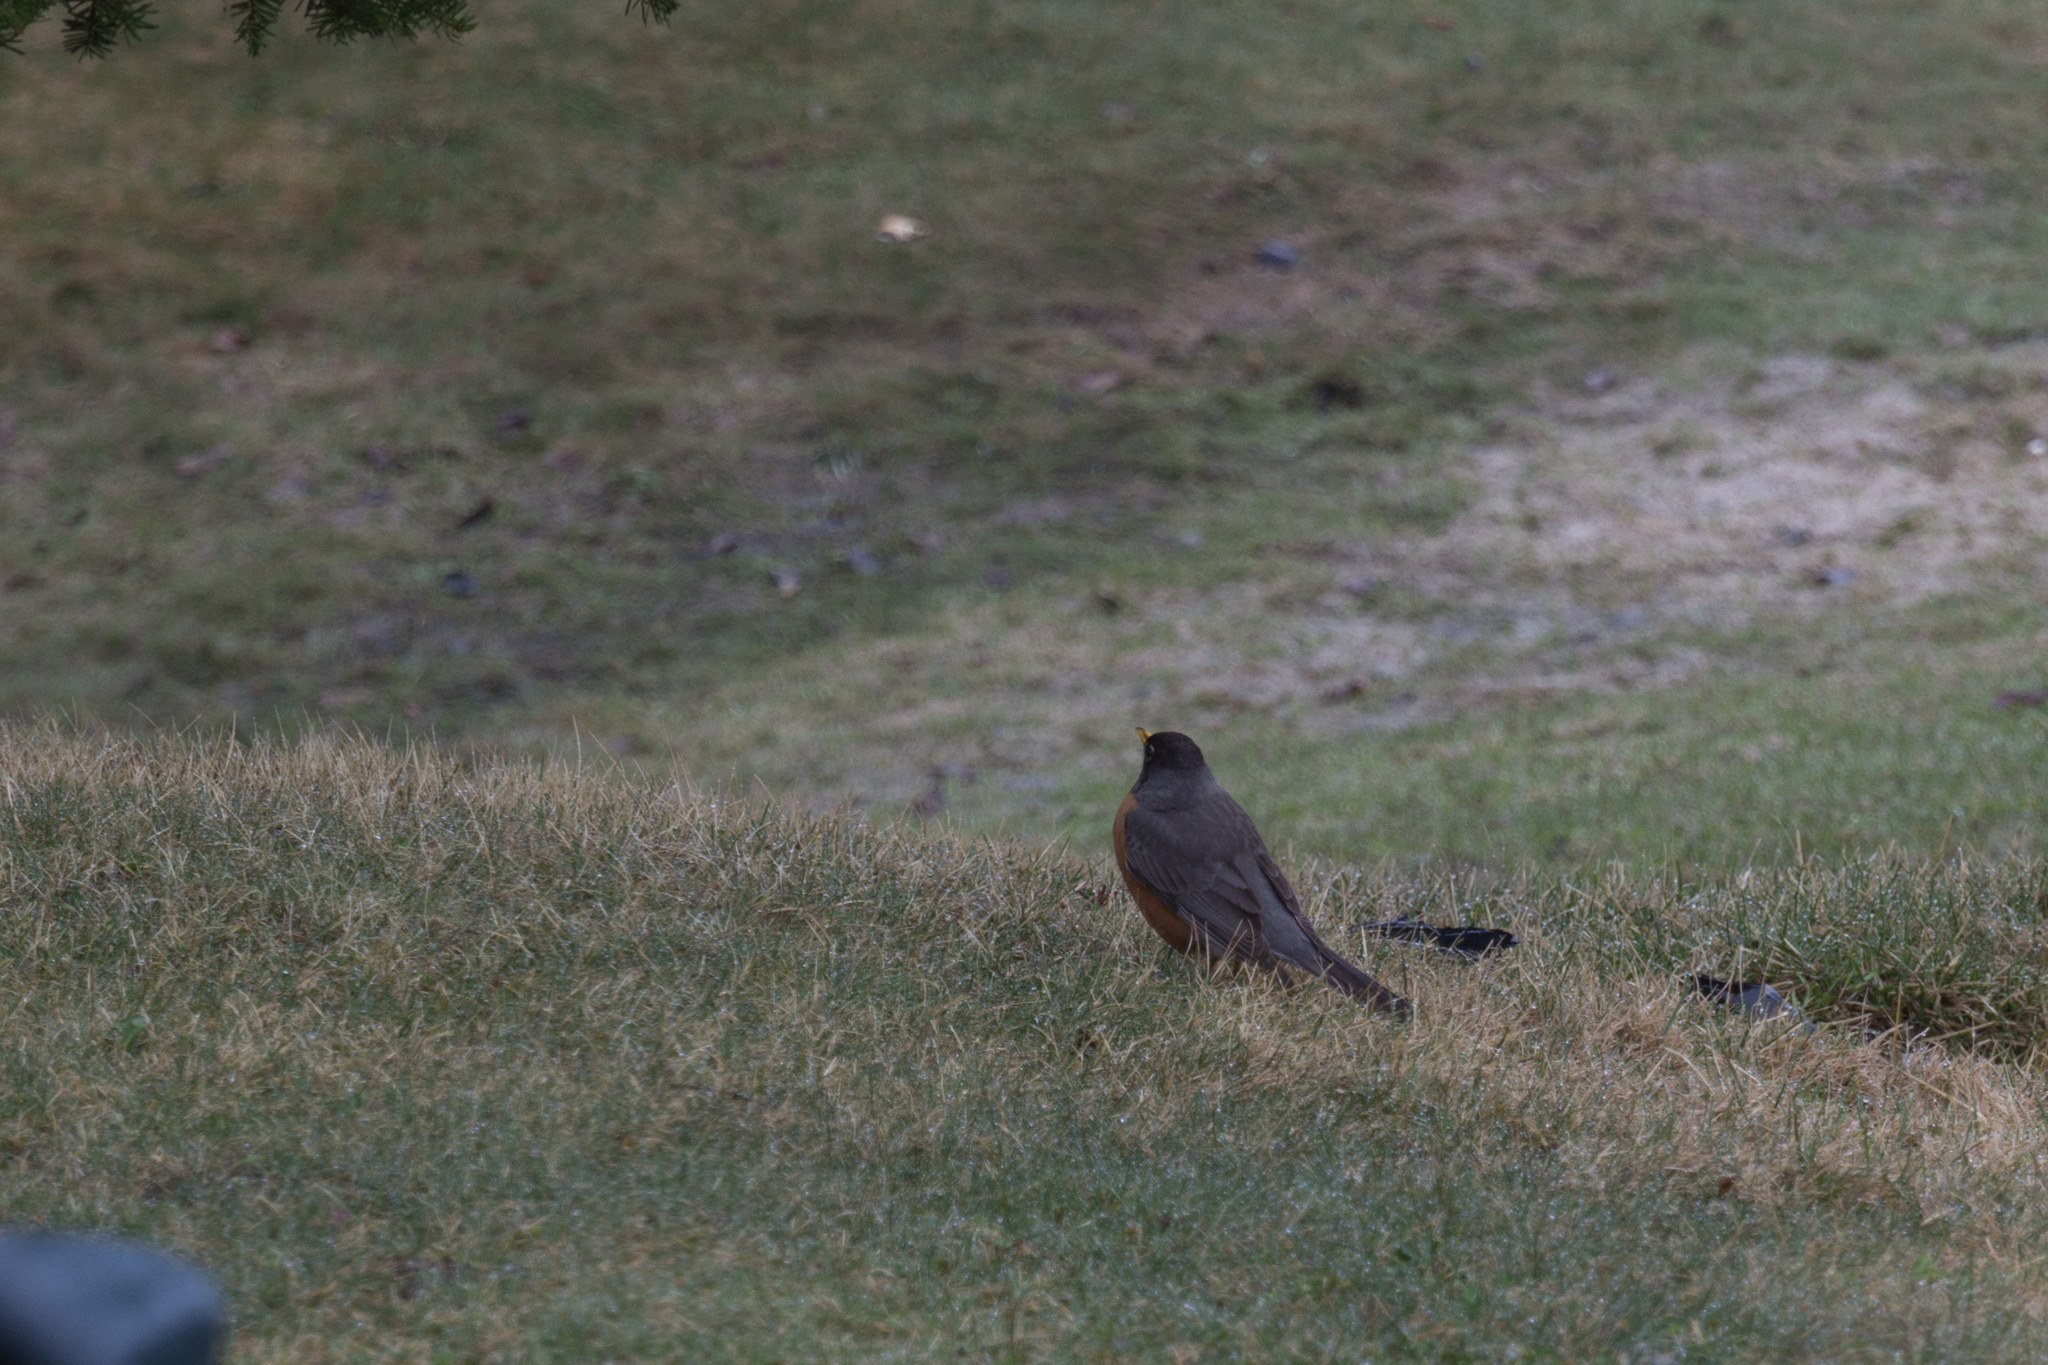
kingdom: Animalia
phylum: Chordata
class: Aves
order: Passeriformes
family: Turdidae
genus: Turdus
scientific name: Turdus migratorius
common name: American robin
